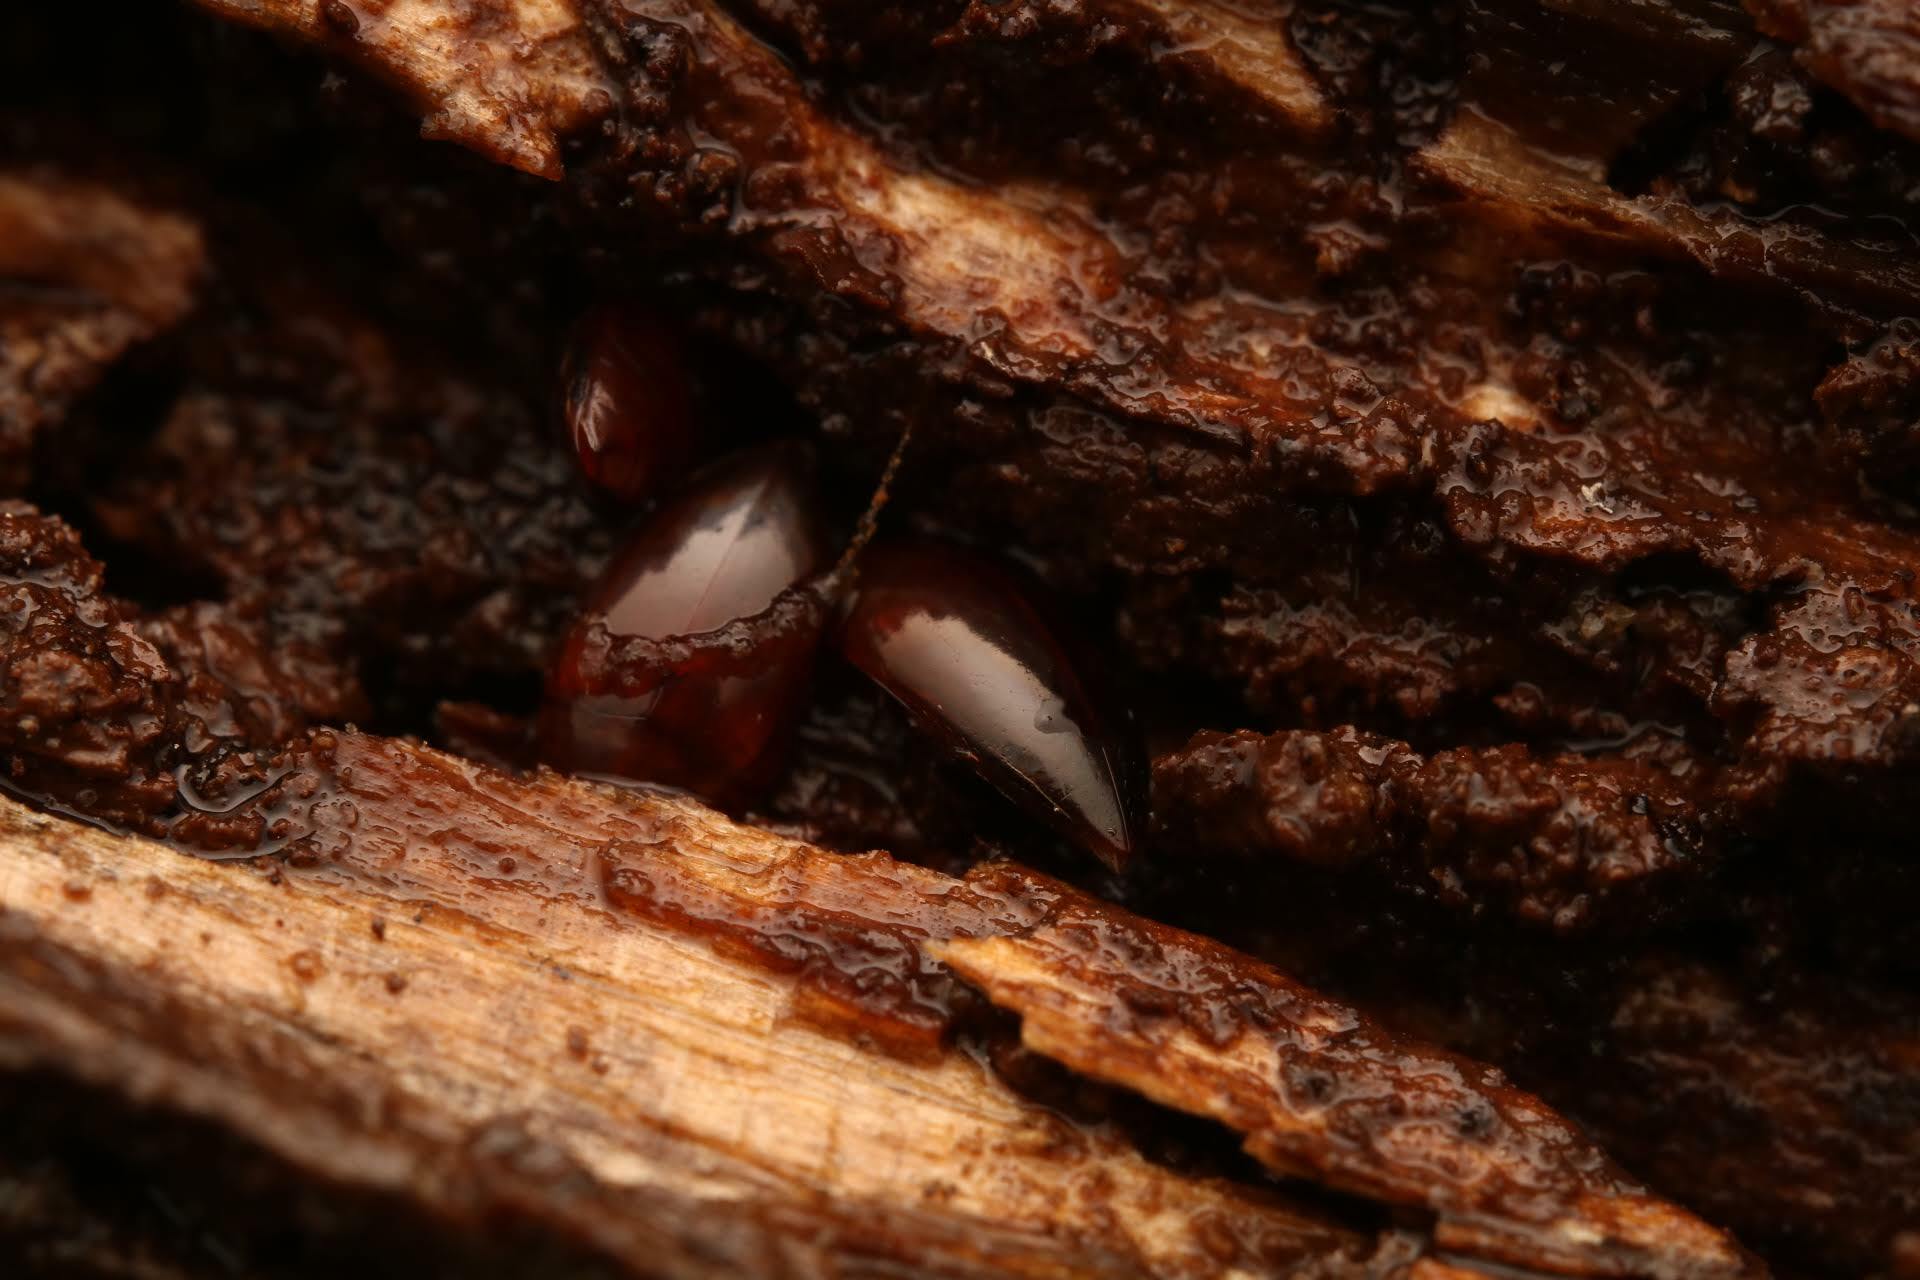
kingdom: Animalia
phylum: Arthropoda
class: Insecta
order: Coleoptera
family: Noteridae
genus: Hydrocanthus
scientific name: Hydrocanthus
